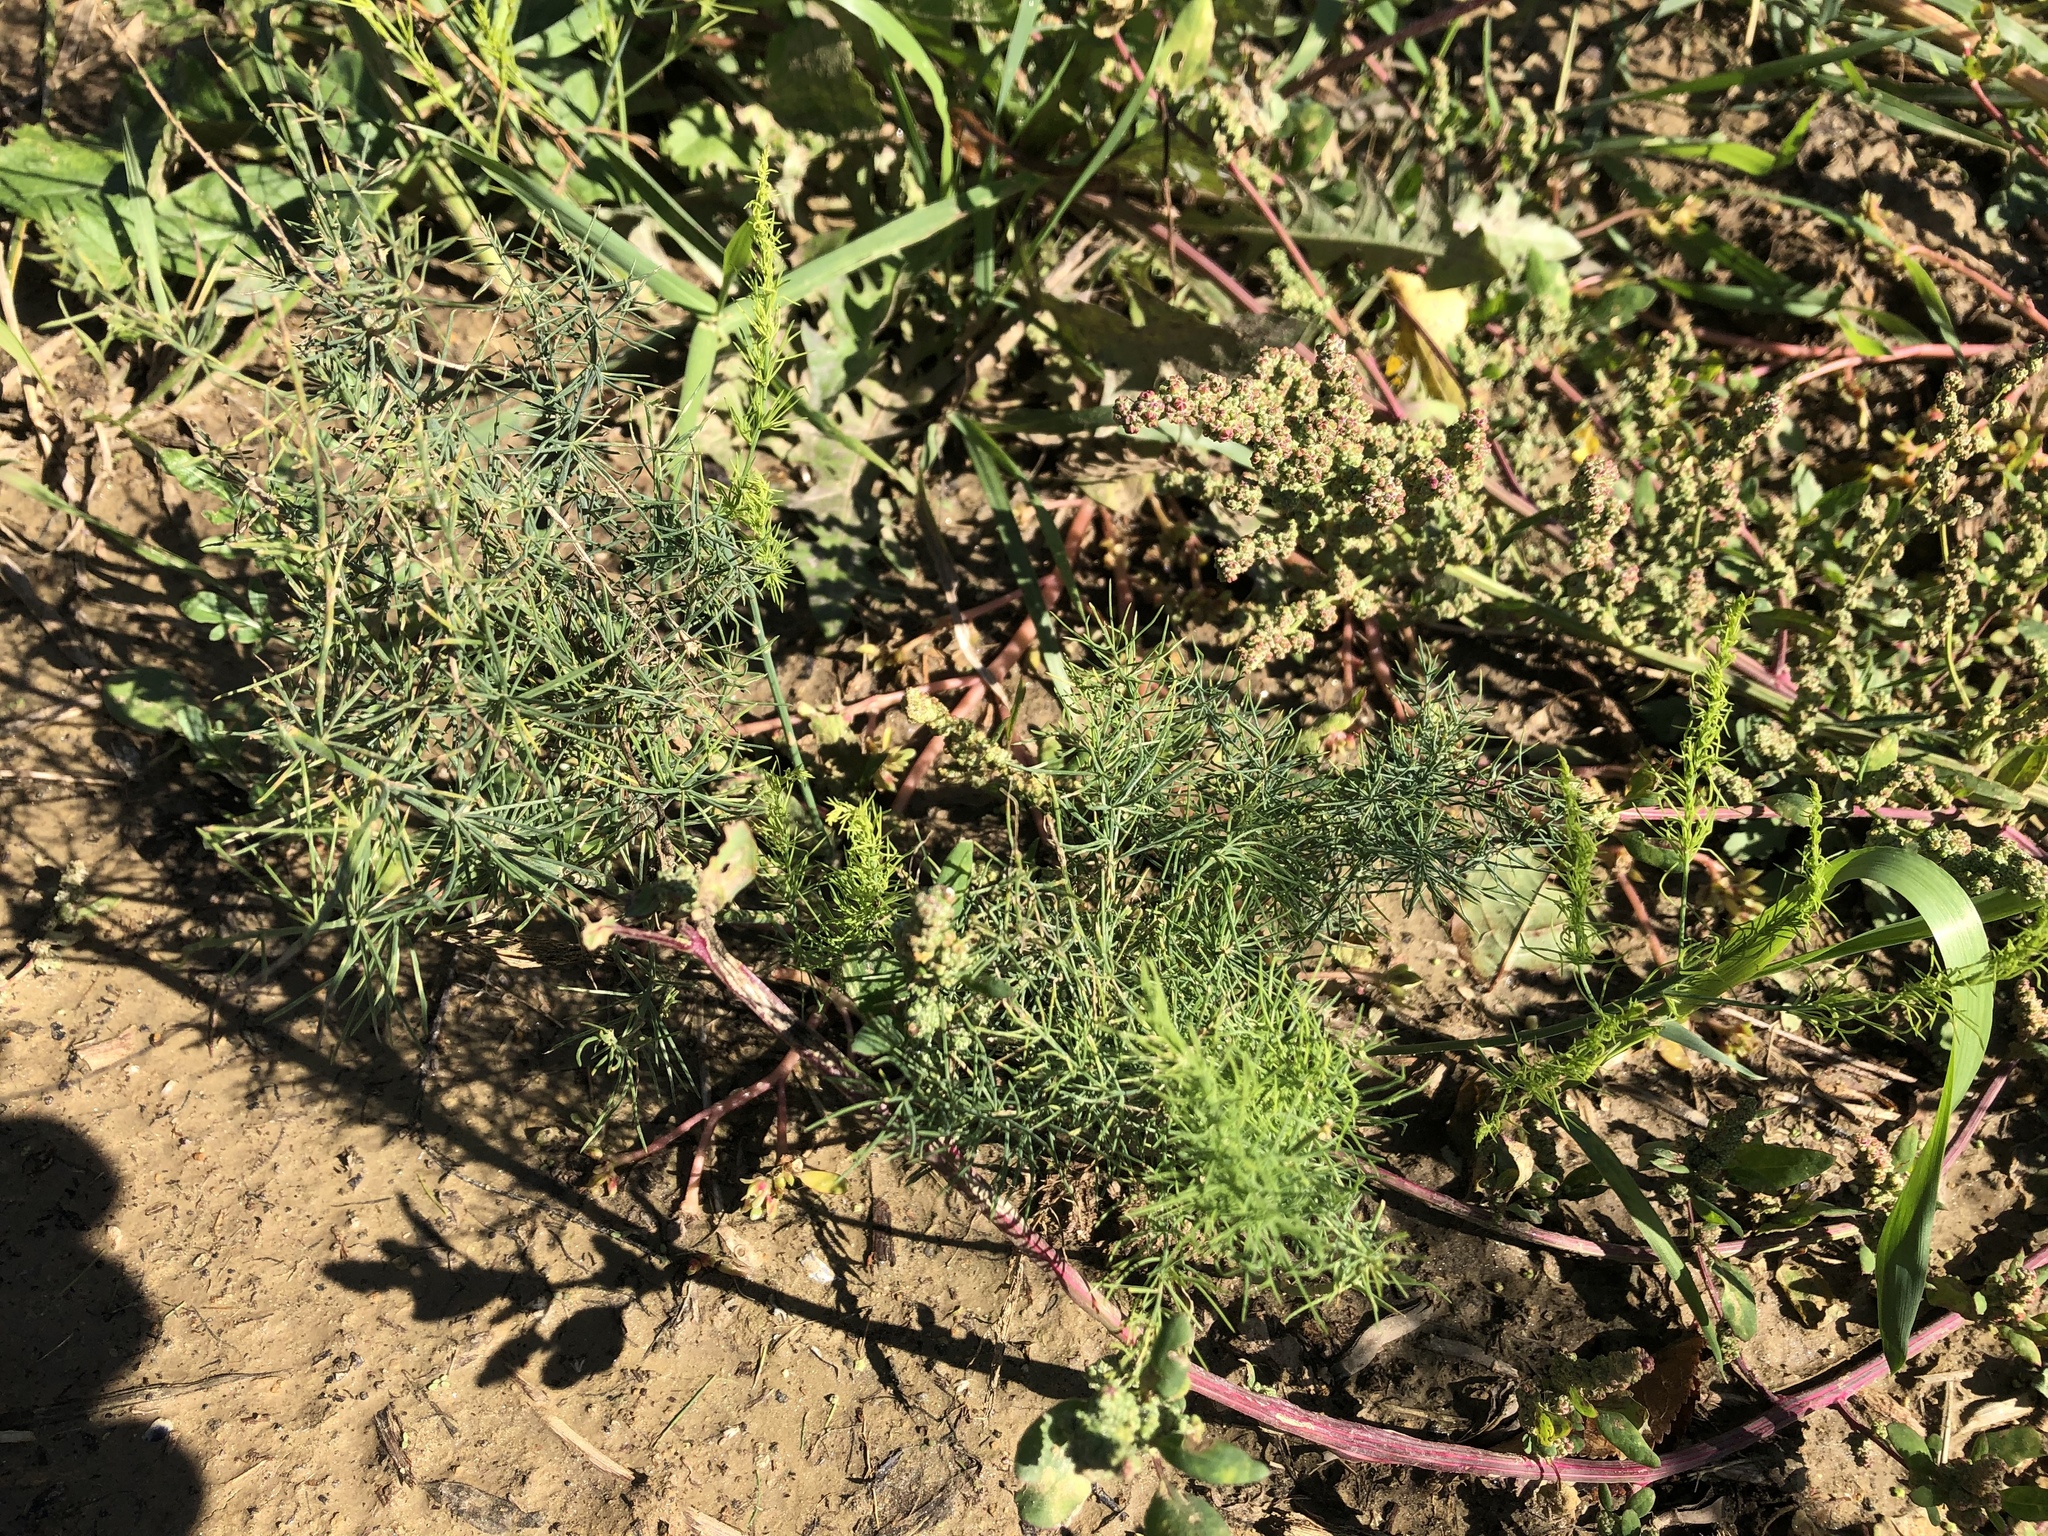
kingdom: Plantae
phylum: Tracheophyta
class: Liliopsida
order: Asparagales
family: Asparagaceae
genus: Asparagus
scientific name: Asparagus officinalis
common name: Garden asparagus
